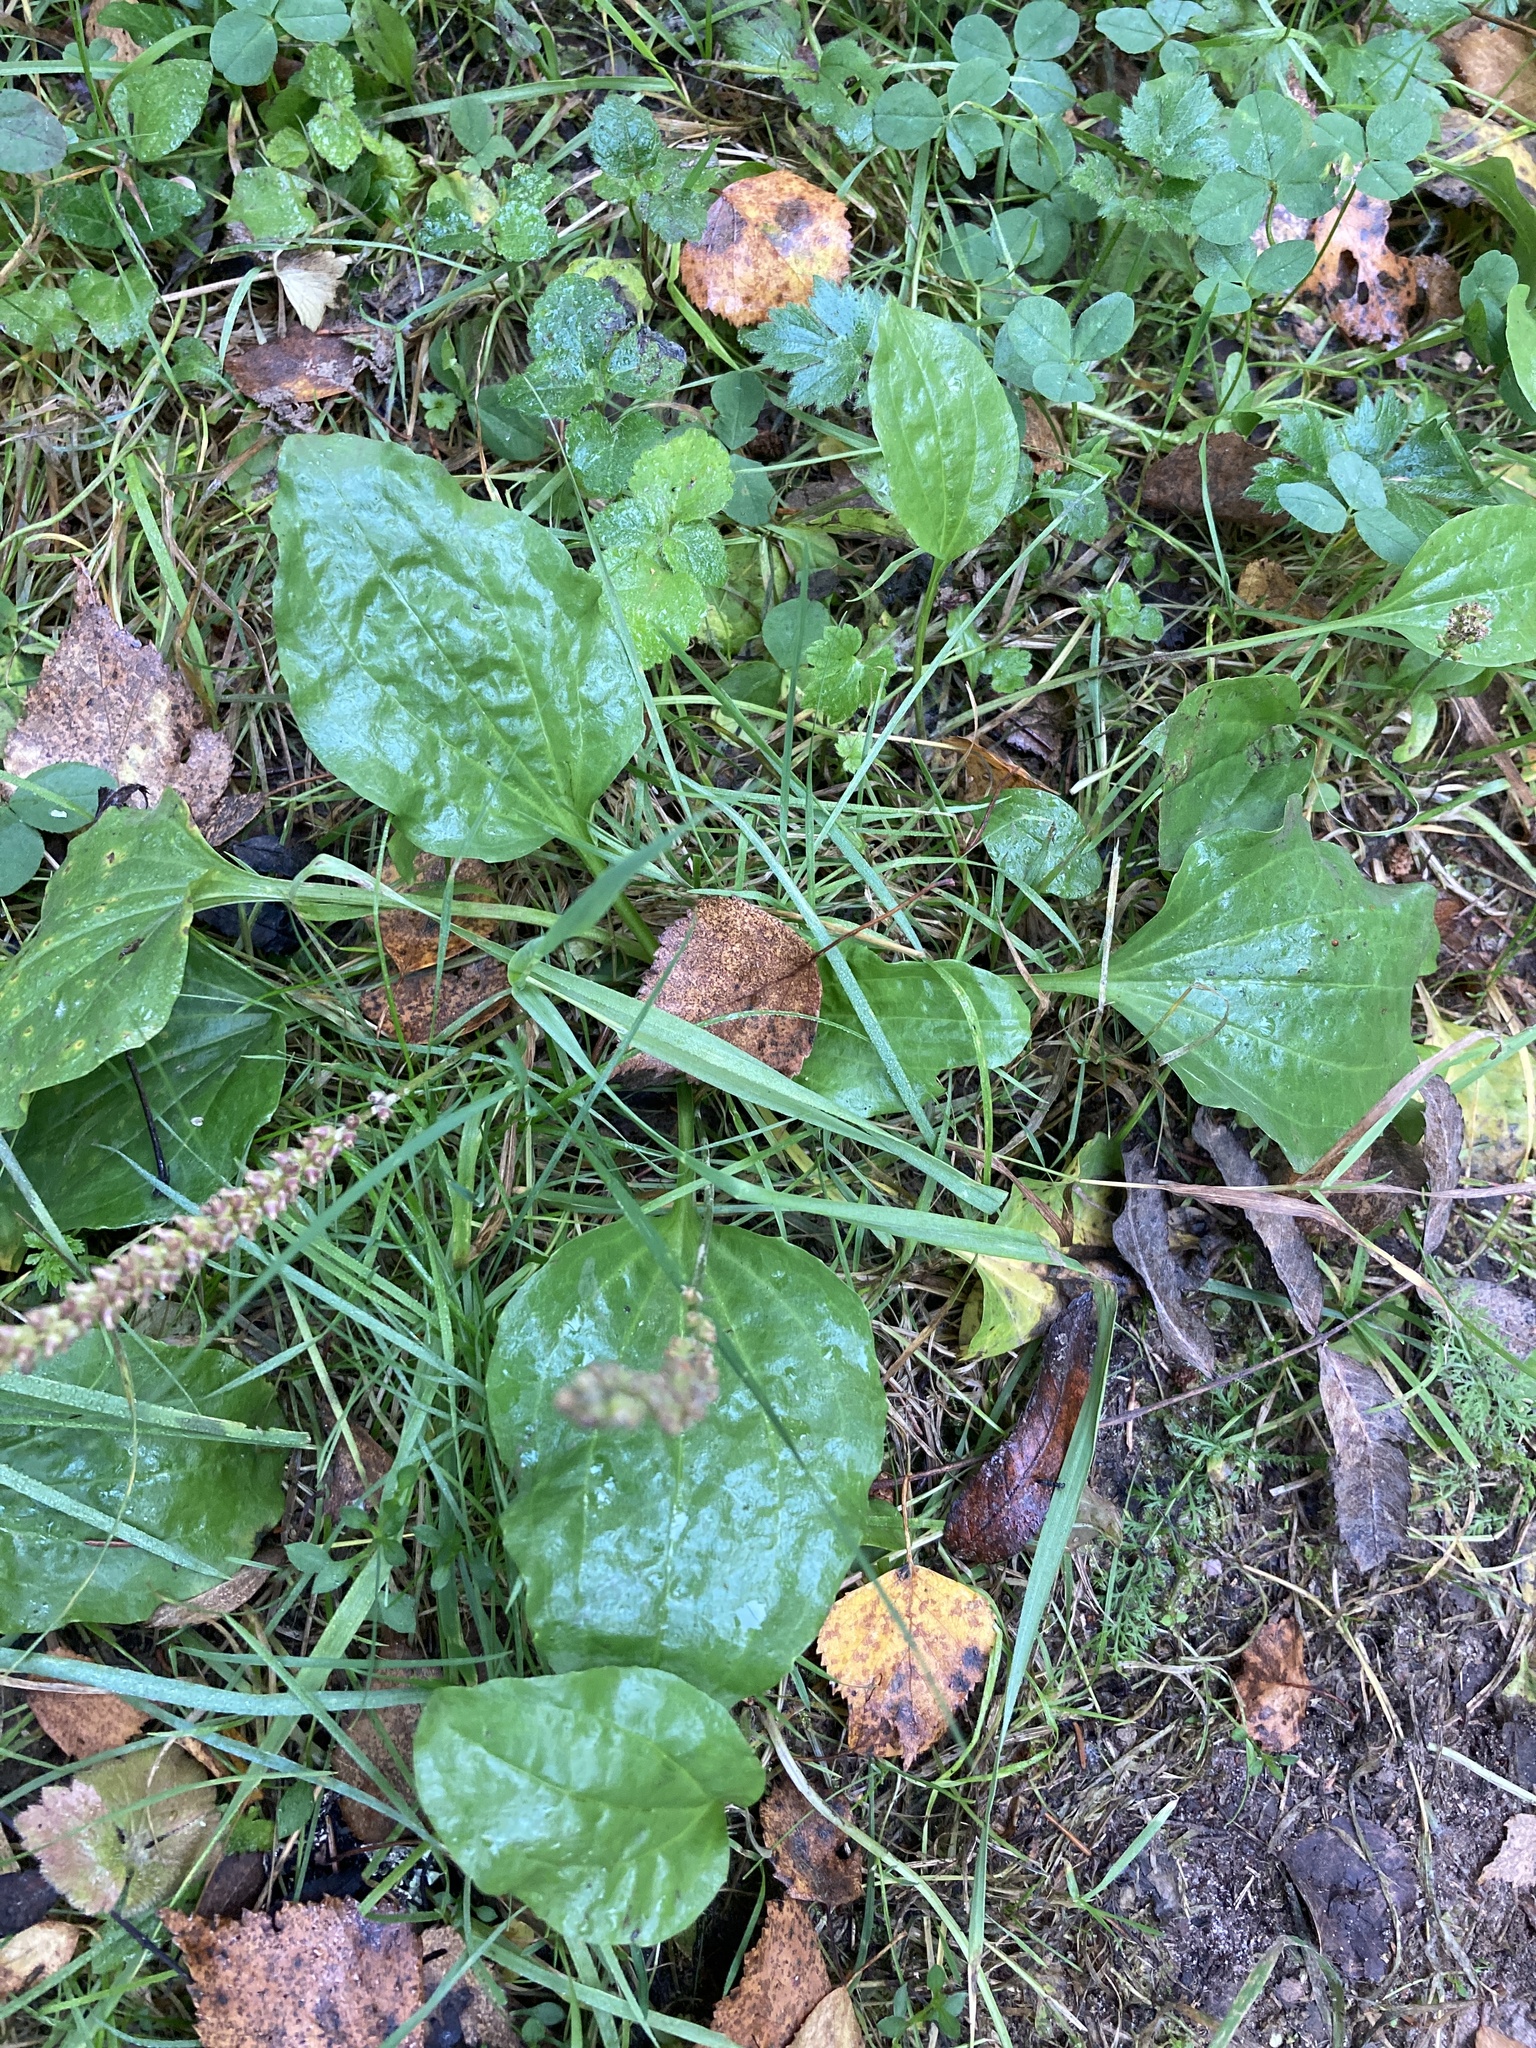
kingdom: Plantae
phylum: Tracheophyta
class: Magnoliopsida
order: Lamiales
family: Plantaginaceae
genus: Plantago
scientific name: Plantago major
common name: Common plantain
